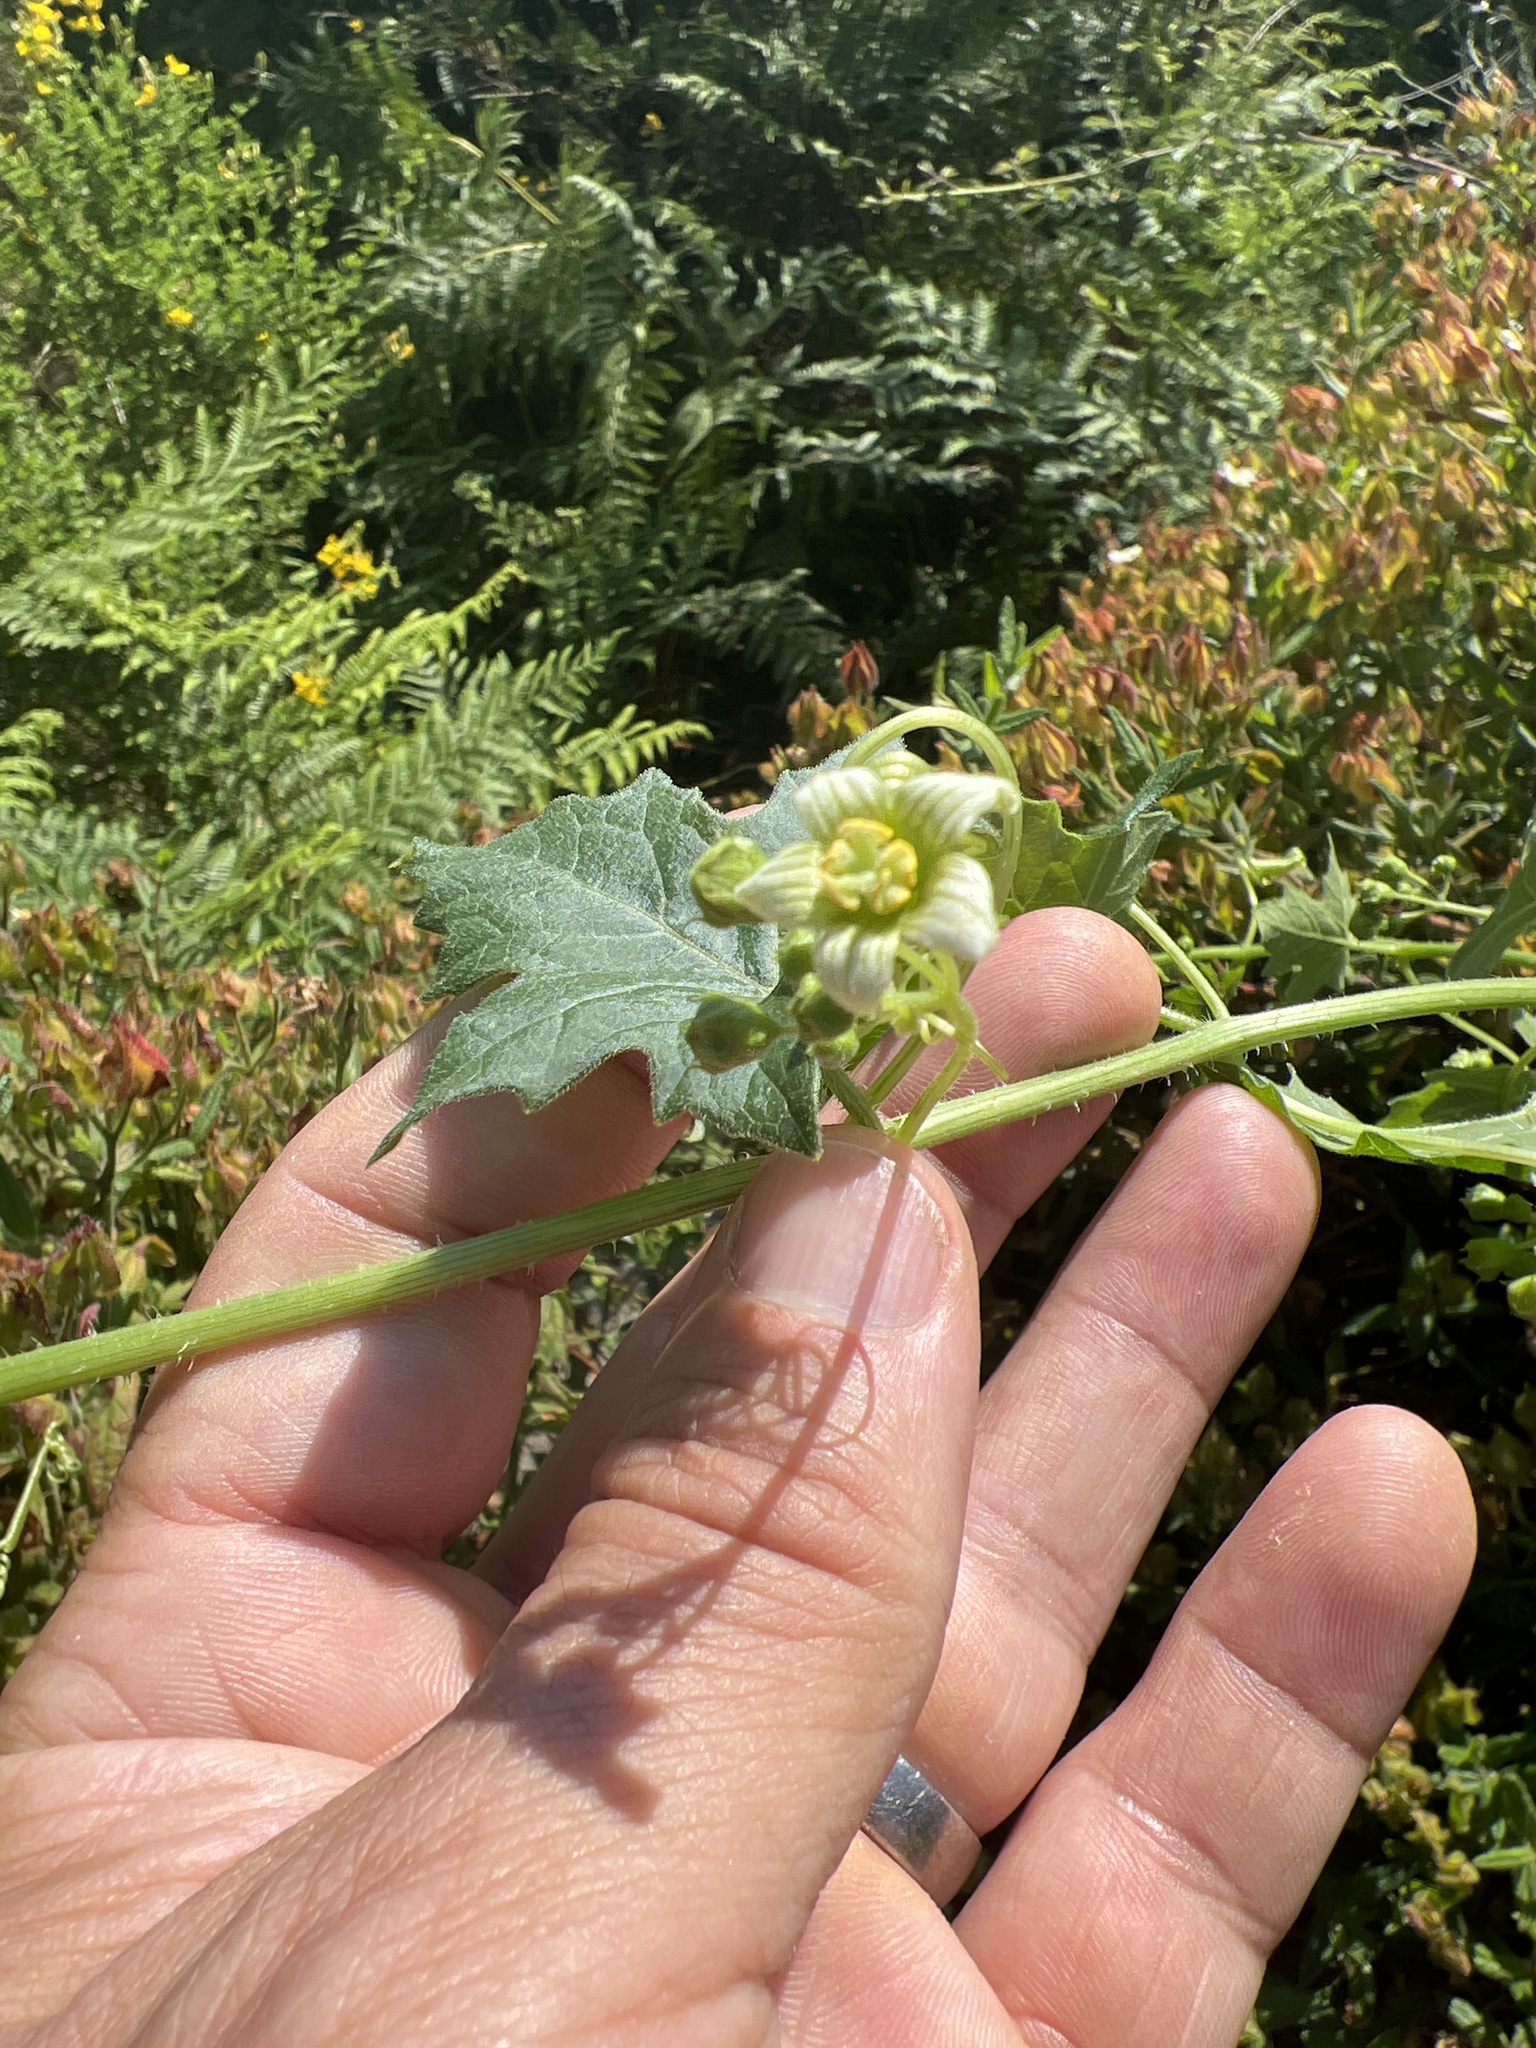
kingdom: Plantae
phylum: Tracheophyta
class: Magnoliopsida
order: Cucurbitales
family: Cucurbitaceae
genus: Bryonia
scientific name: Bryonia dioica
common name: White bryony
